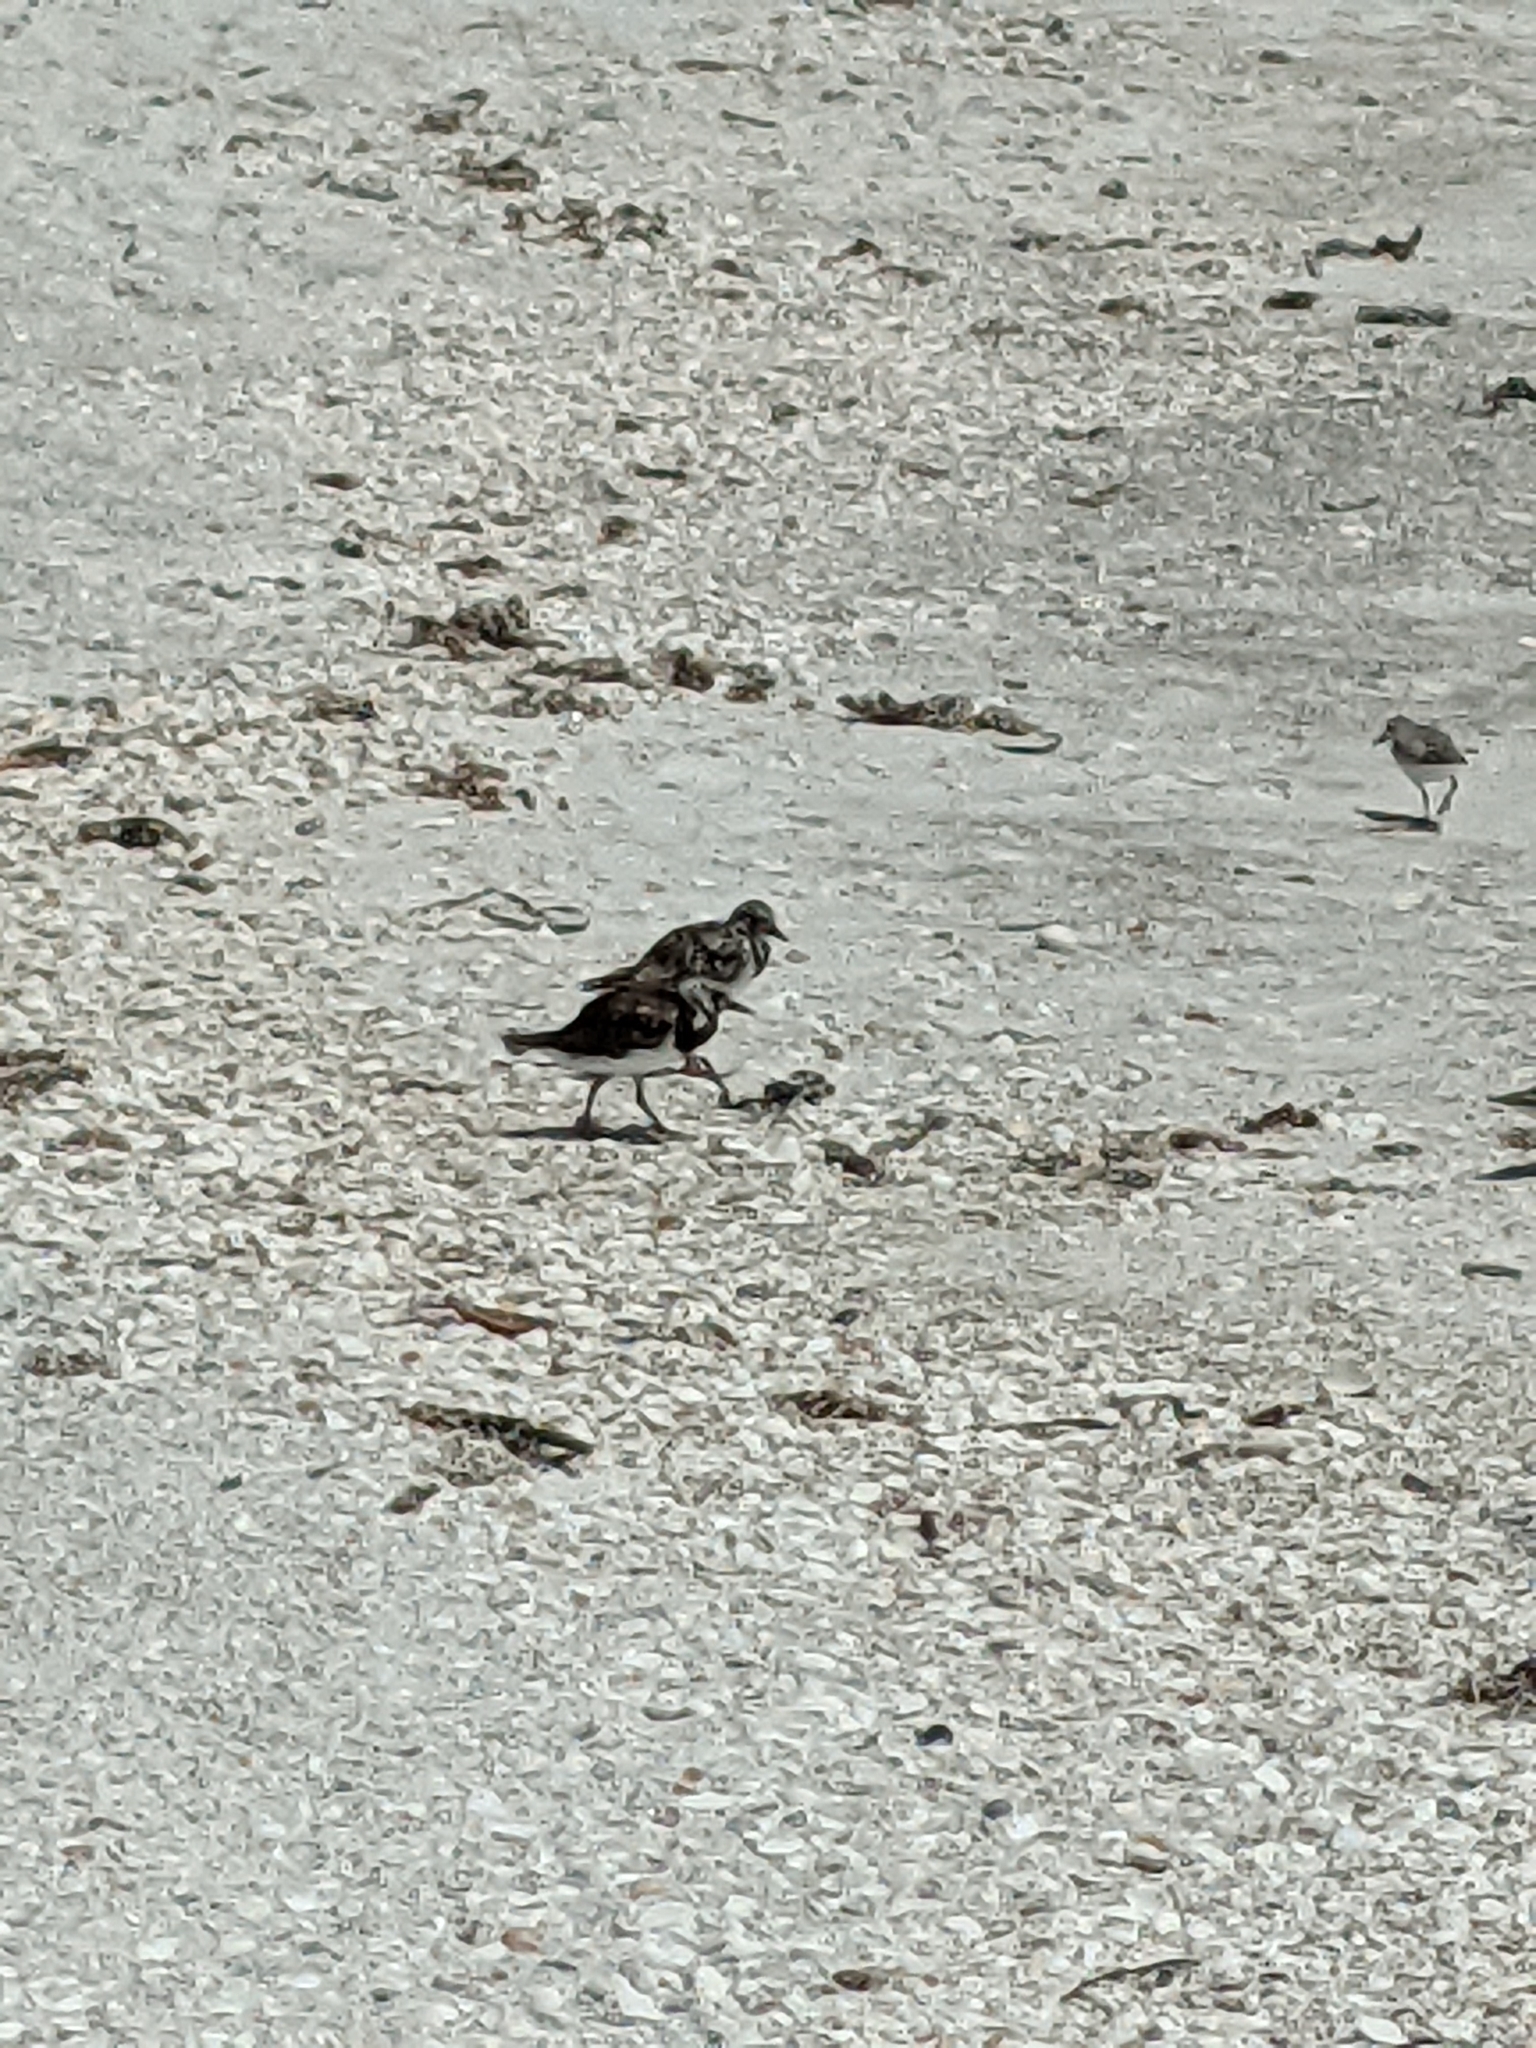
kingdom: Animalia
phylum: Chordata
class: Aves
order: Charadriiformes
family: Scolopacidae
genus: Arenaria
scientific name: Arenaria interpres
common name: Ruddy turnstone
